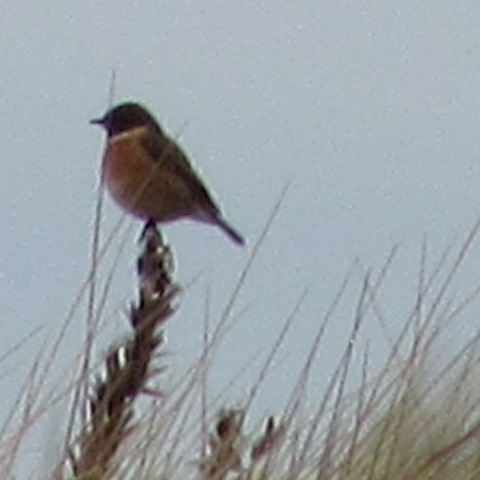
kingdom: Animalia
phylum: Chordata
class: Aves
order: Passeriformes
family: Muscicapidae
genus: Saxicola
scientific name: Saxicola rubicola
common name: European stonechat
